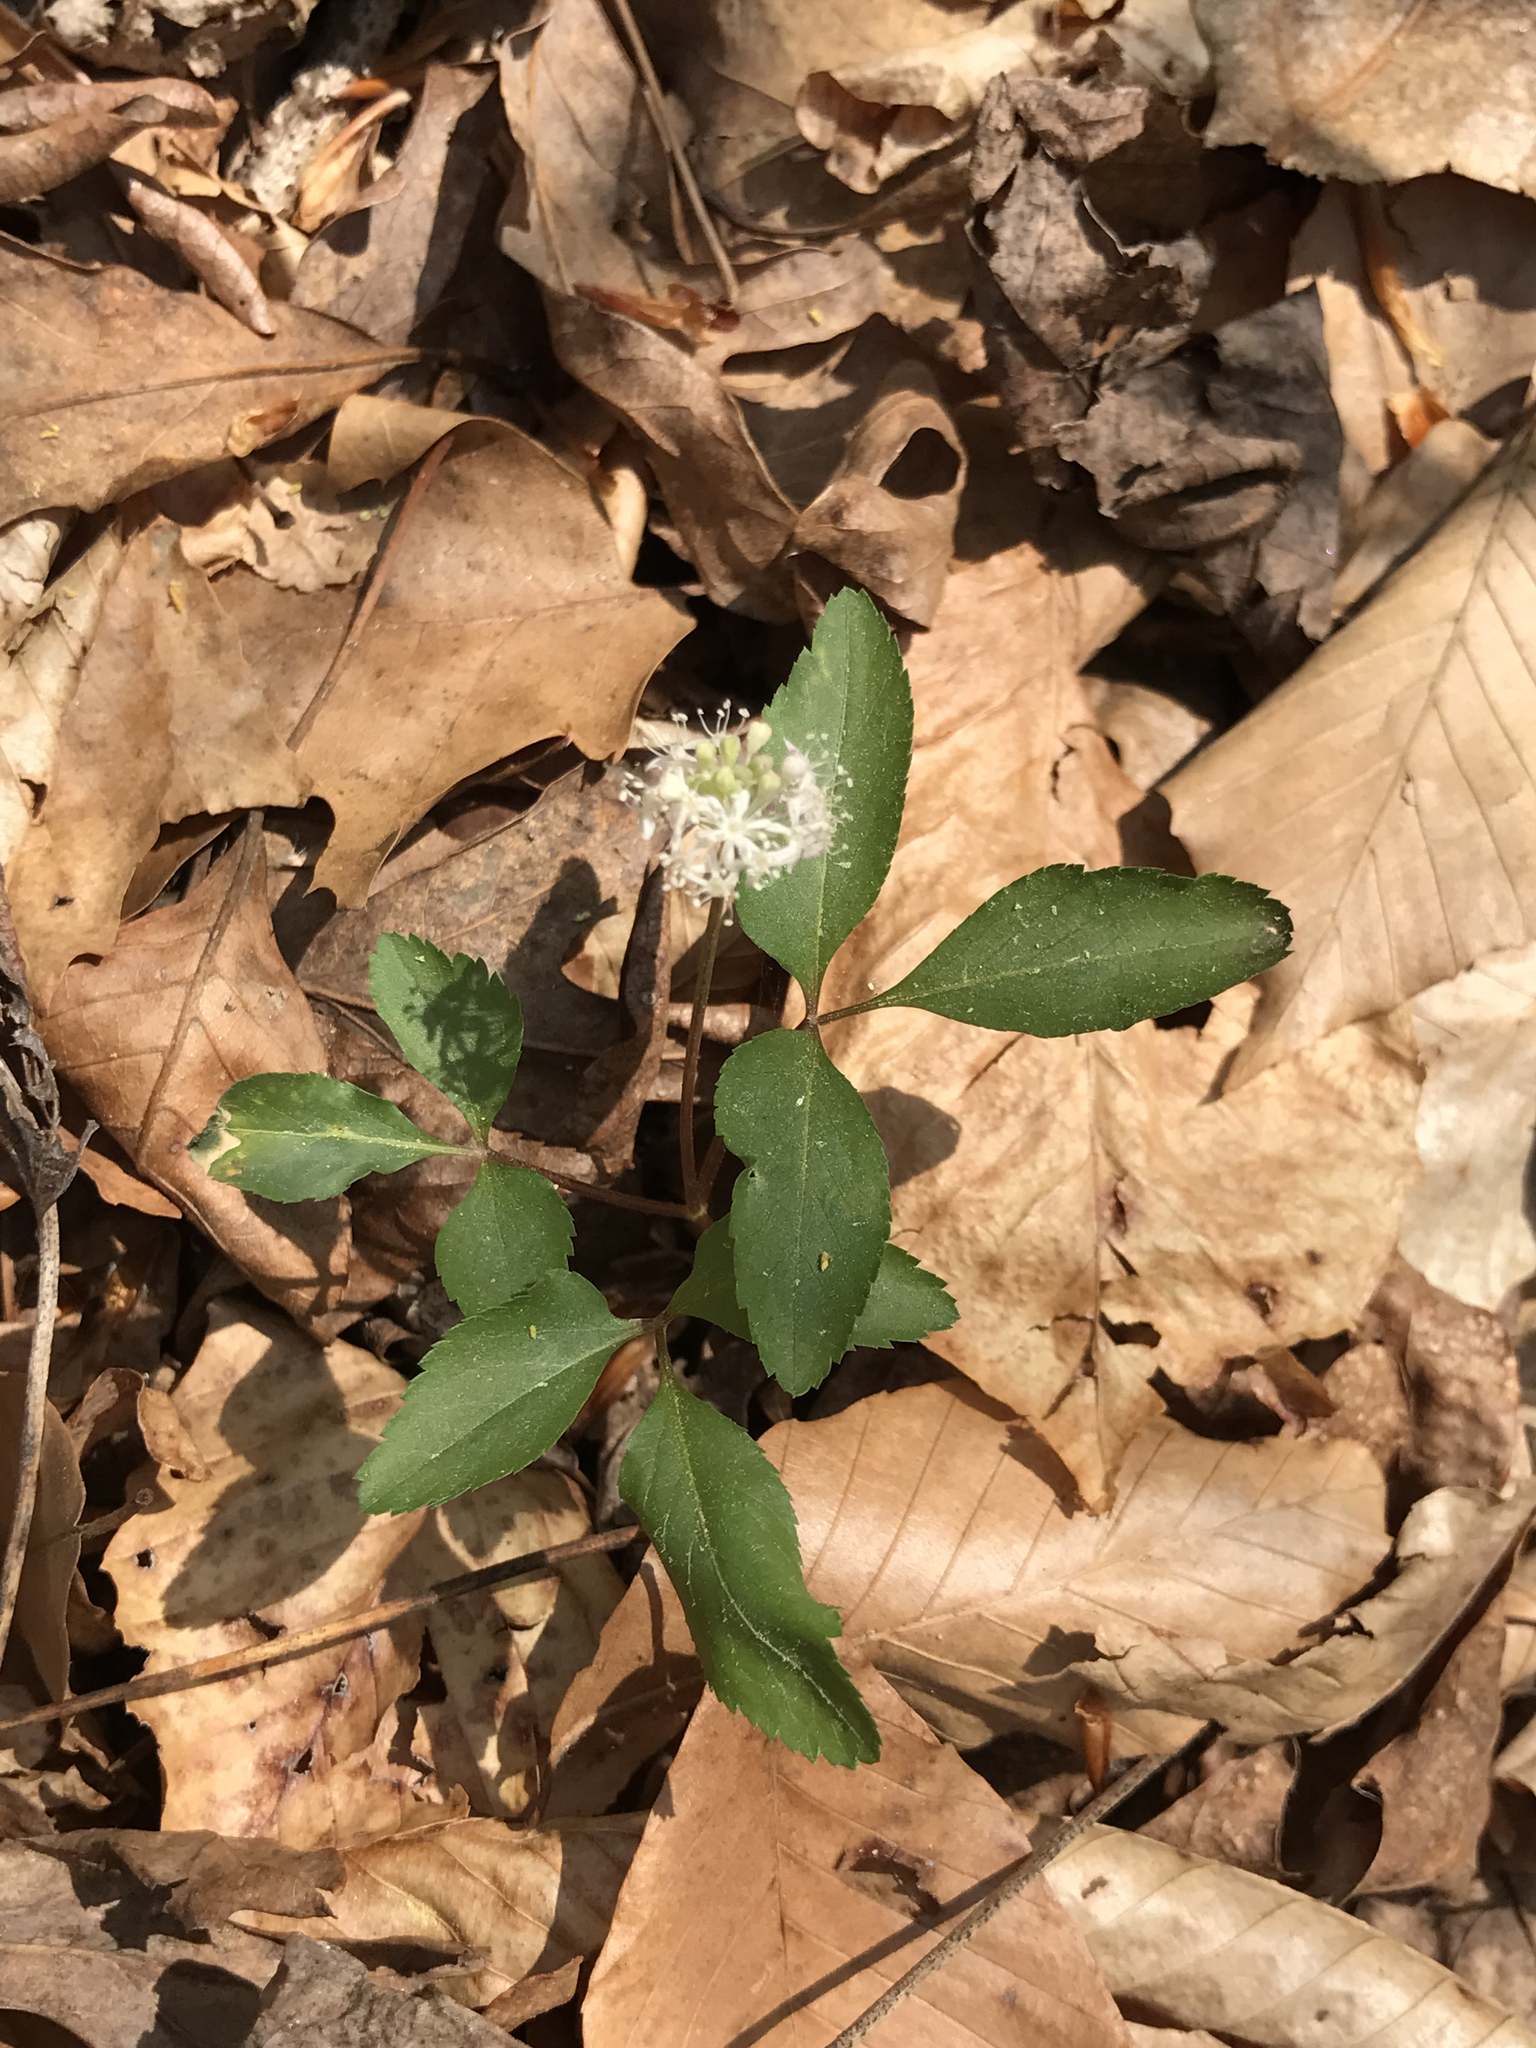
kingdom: Plantae
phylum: Tracheophyta
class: Magnoliopsida
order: Apiales
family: Araliaceae
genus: Panax
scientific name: Panax trifolius
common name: Dwarf ginseng
